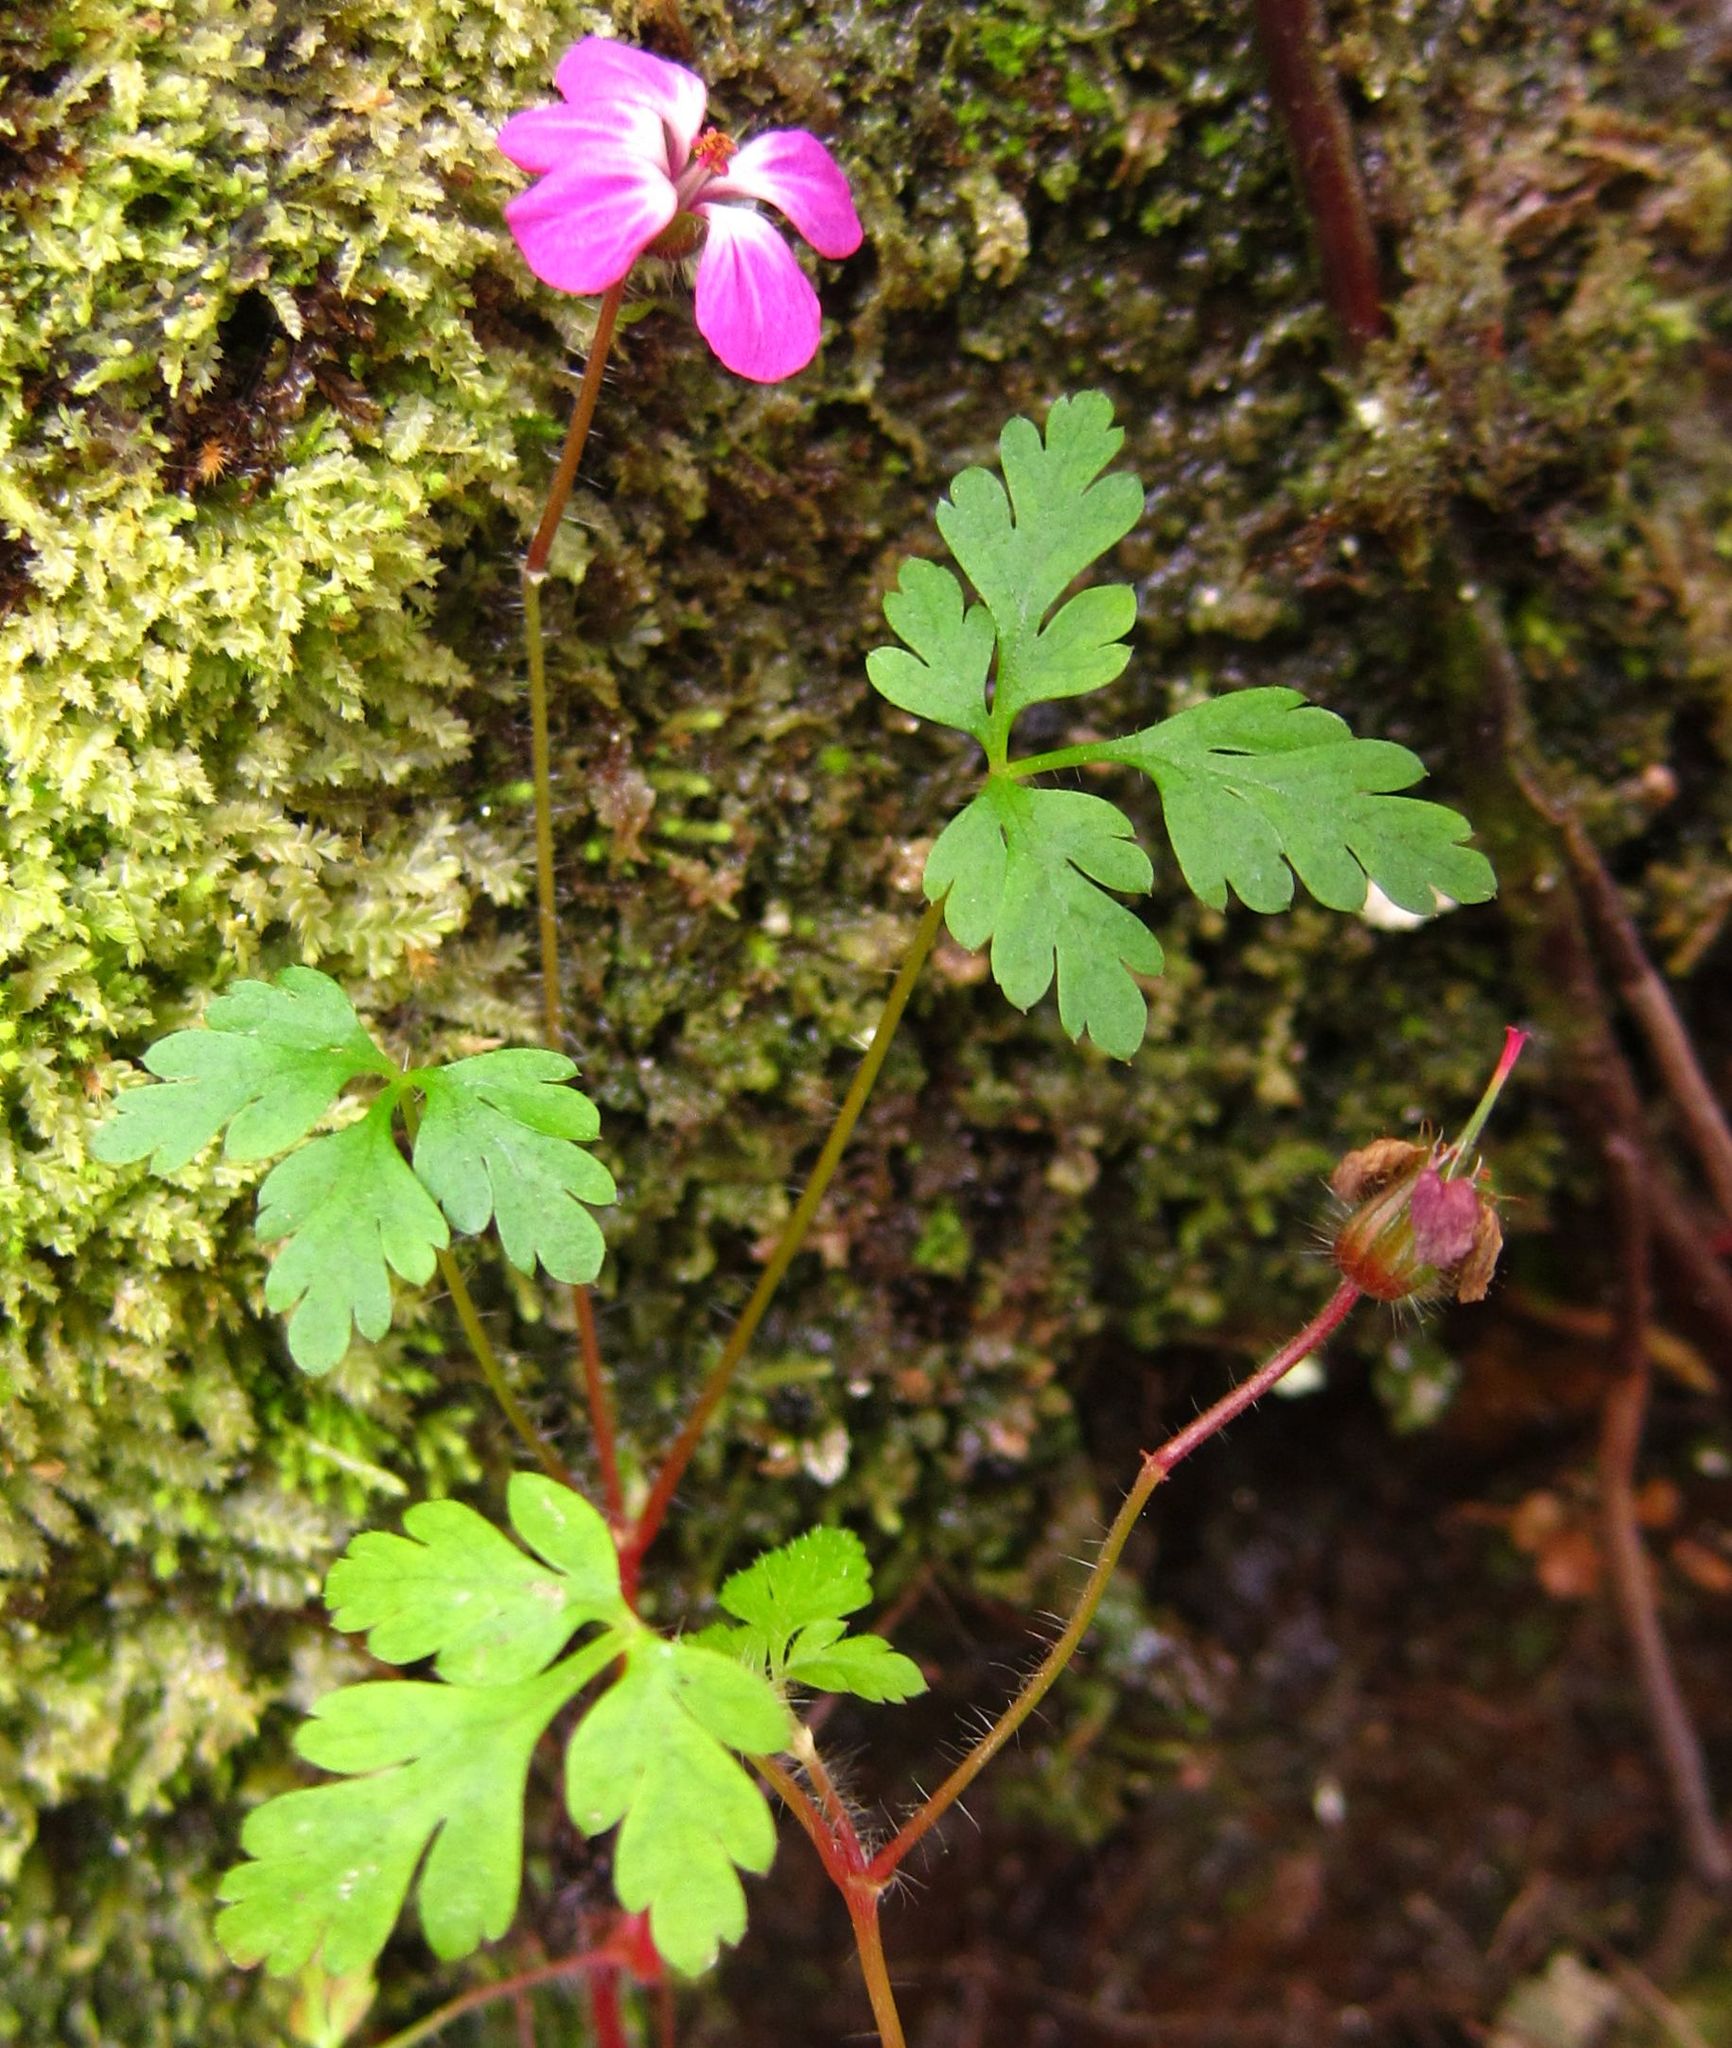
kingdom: Plantae
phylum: Tracheophyta
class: Magnoliopsida
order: Geraniales
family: Geraniaceae
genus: Geranium
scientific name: Geranium robertianum
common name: Herb-robert
